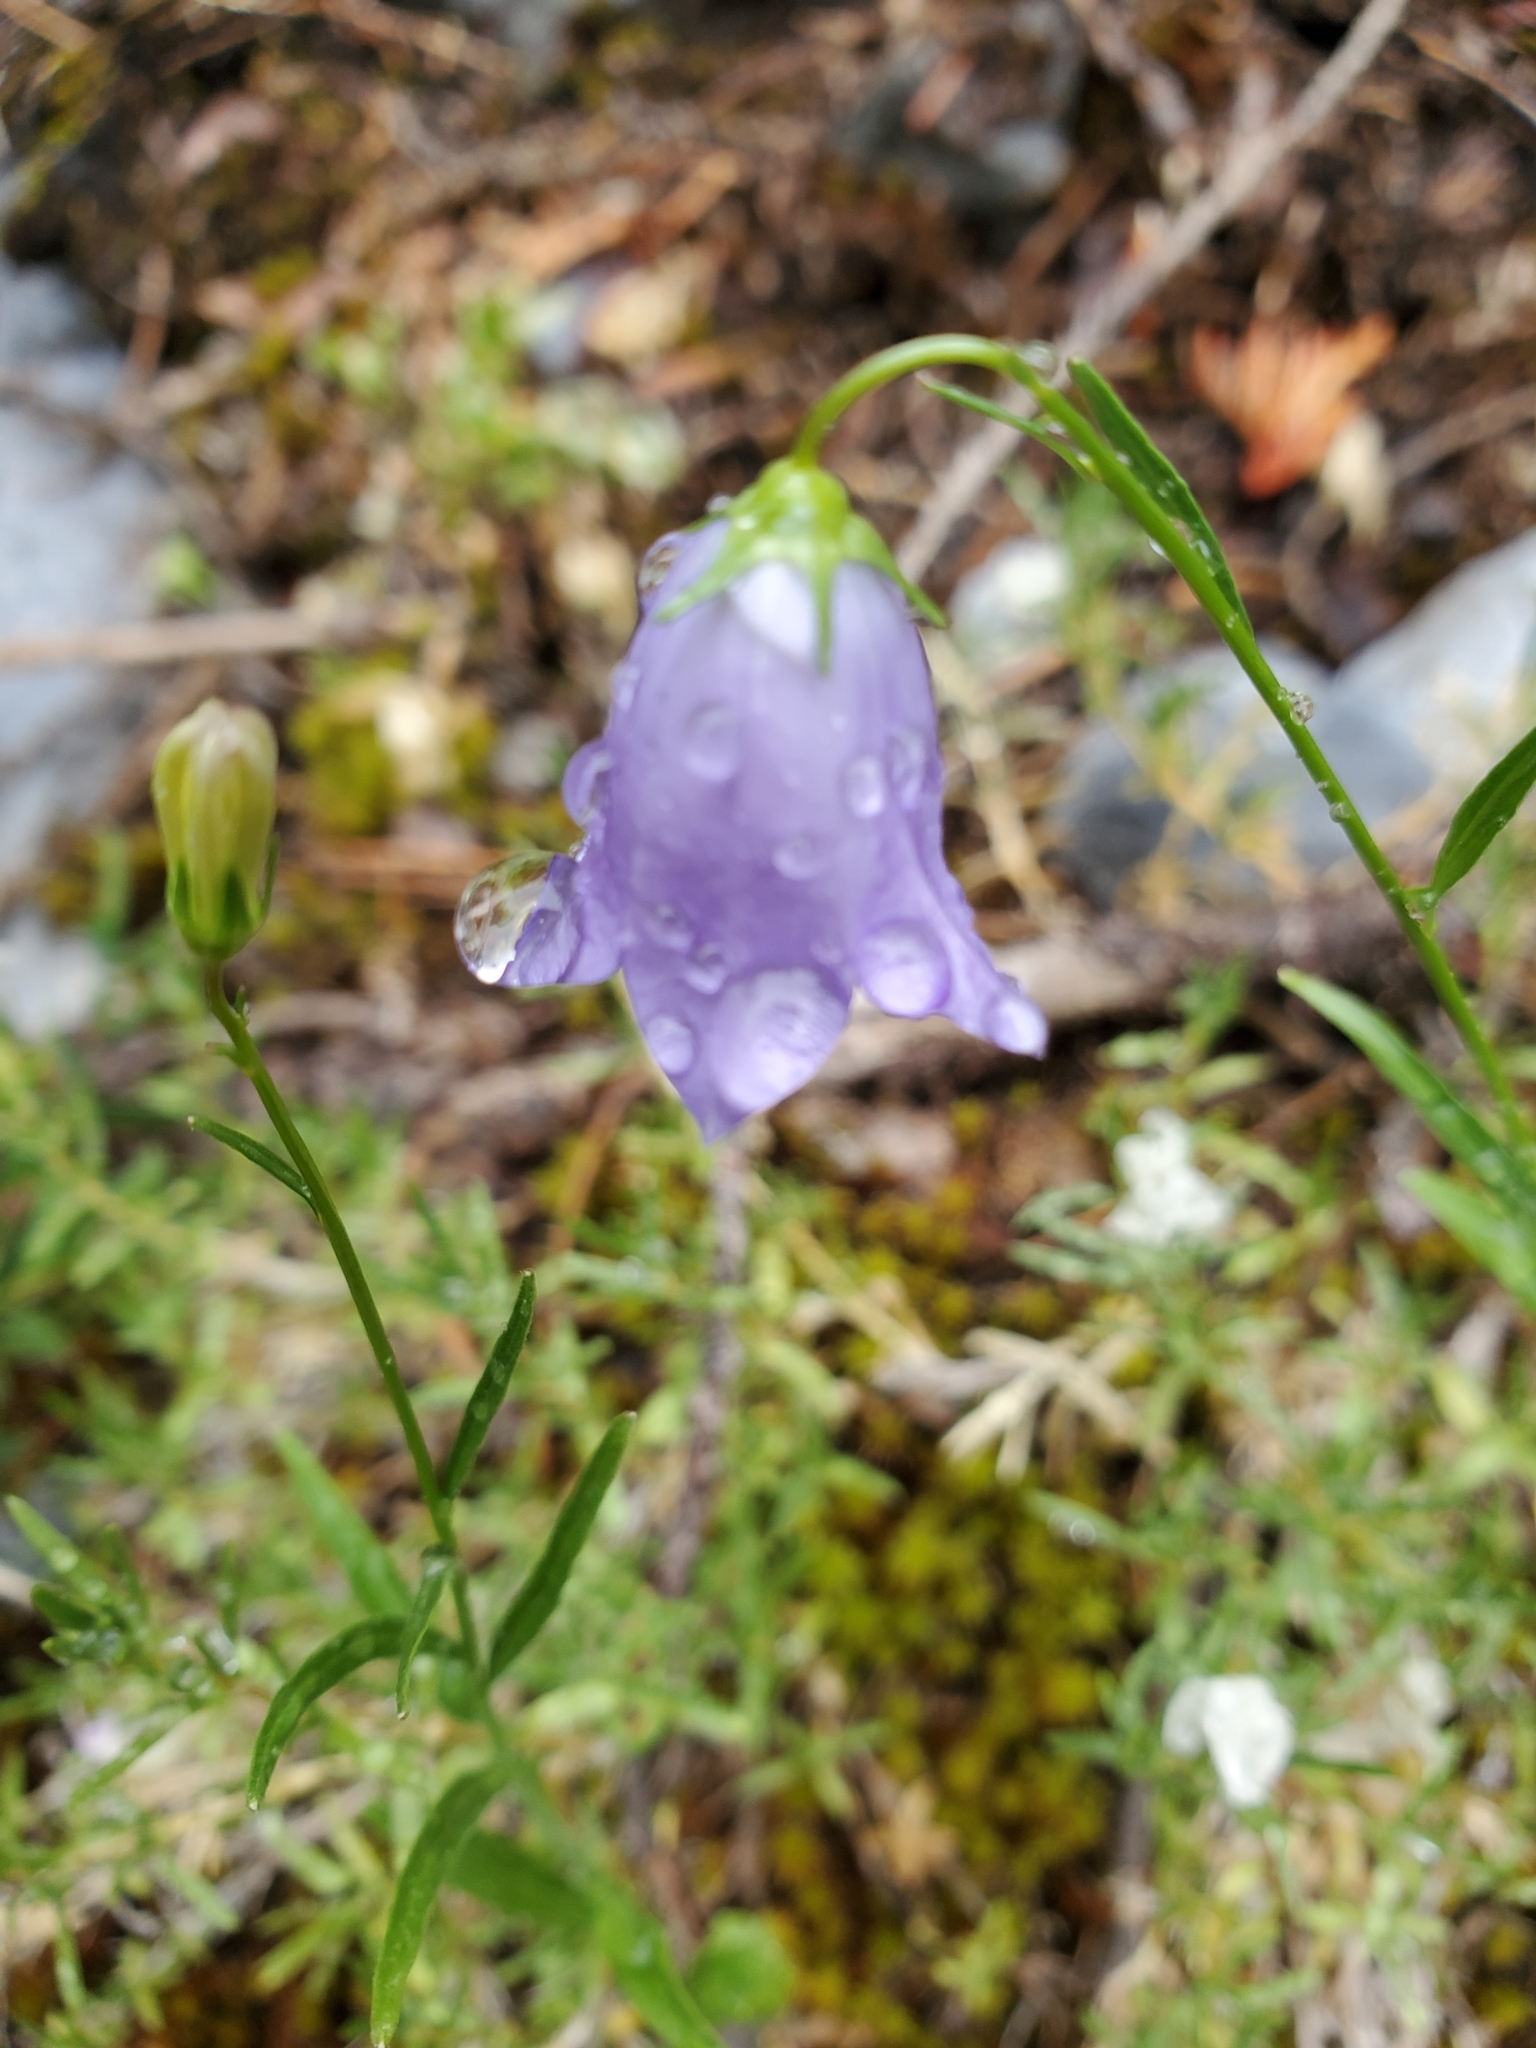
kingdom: Plantae
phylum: Tracheophyta
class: Magnoliopsida
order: Asterales
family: Campanulaceae
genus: Campanula
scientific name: Campanula alaskana
